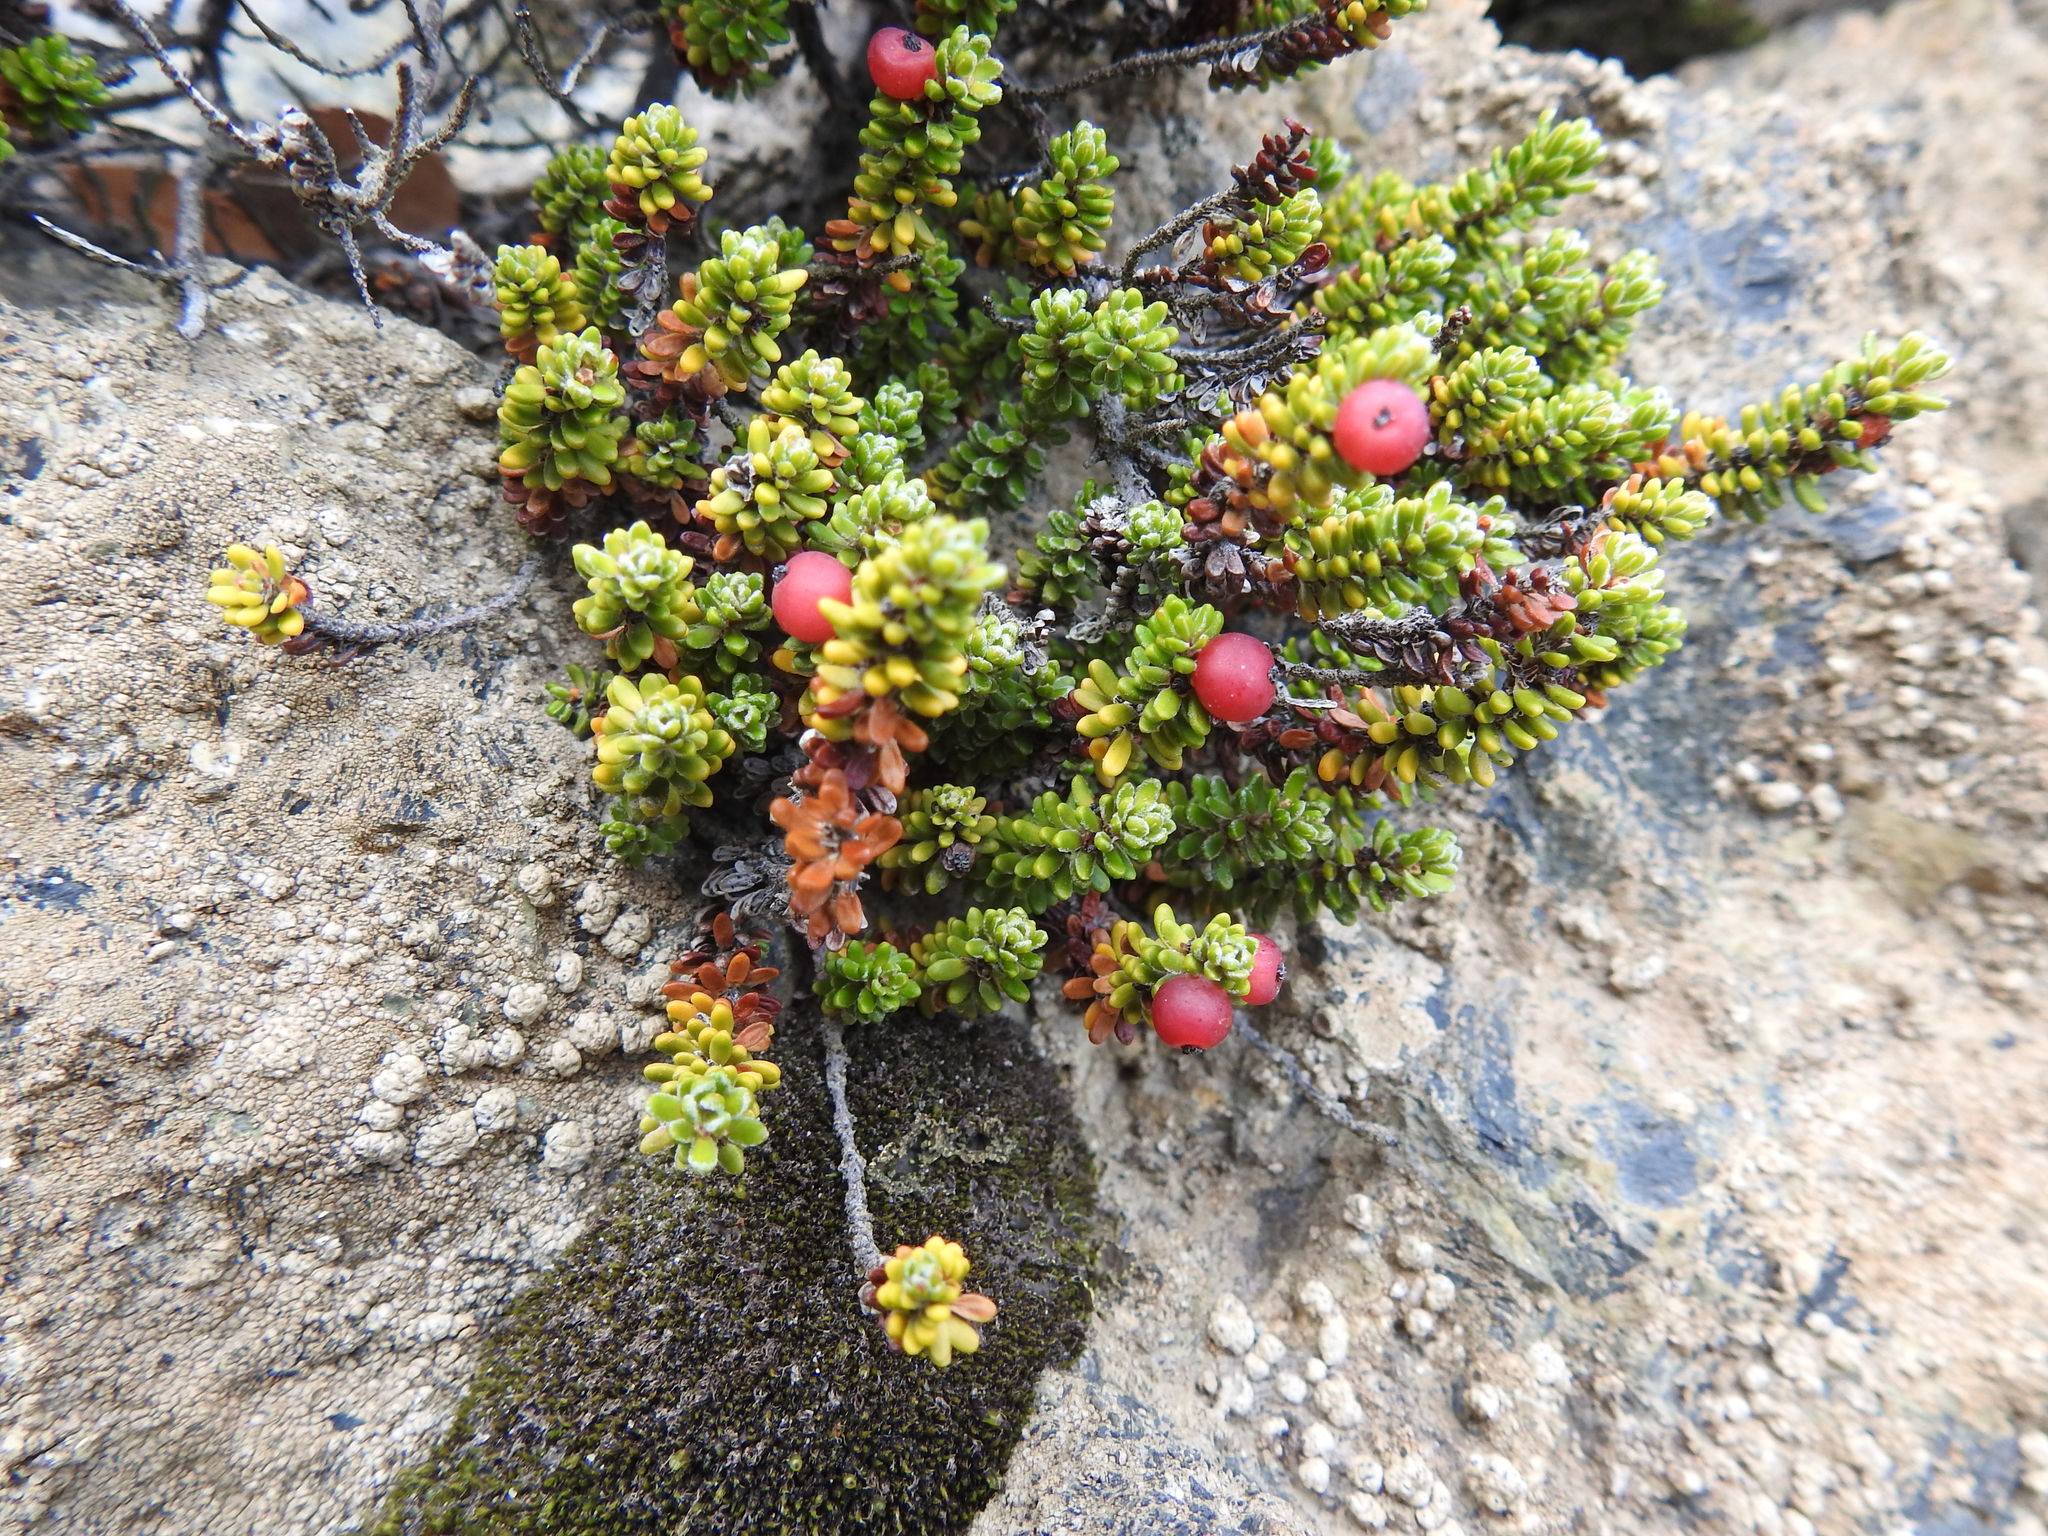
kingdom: Plantae
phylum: Tracheophyta
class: Magnoliopsida
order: Ericales
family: Ericaceae
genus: Empetrum
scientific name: Empetrum rubrum
